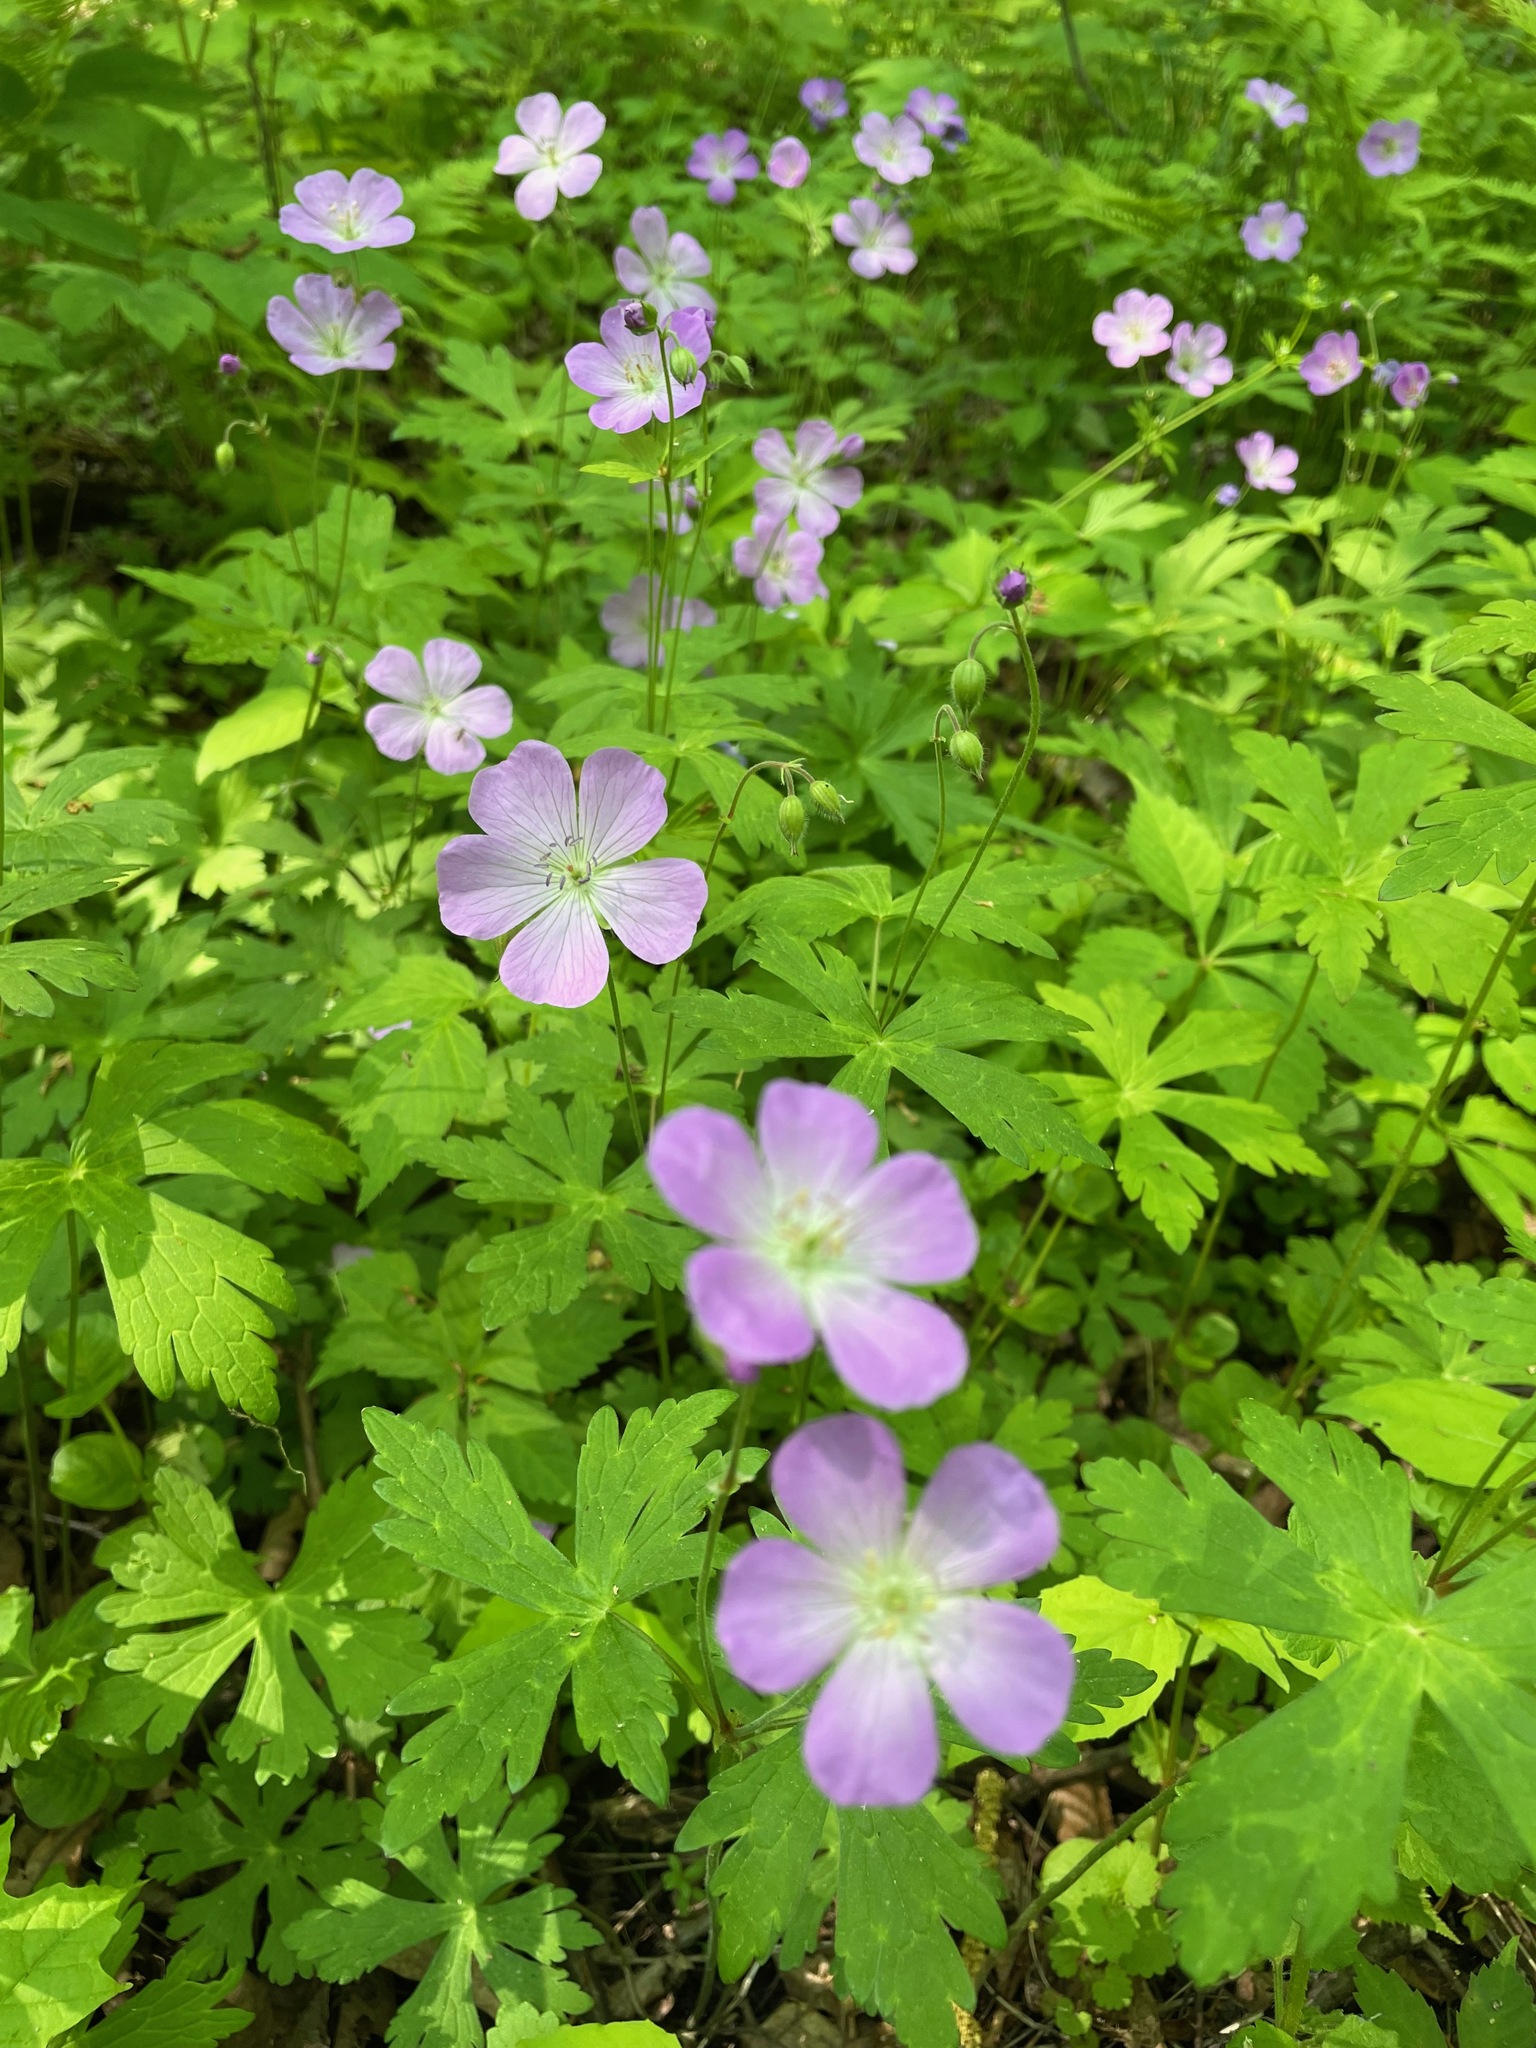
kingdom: Plantae
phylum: Tracheophyta
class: Magnoliopsida
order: Geraniales
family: Geraniaceae
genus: Geranium
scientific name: Geranium maculatum
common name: Spotted geranium
